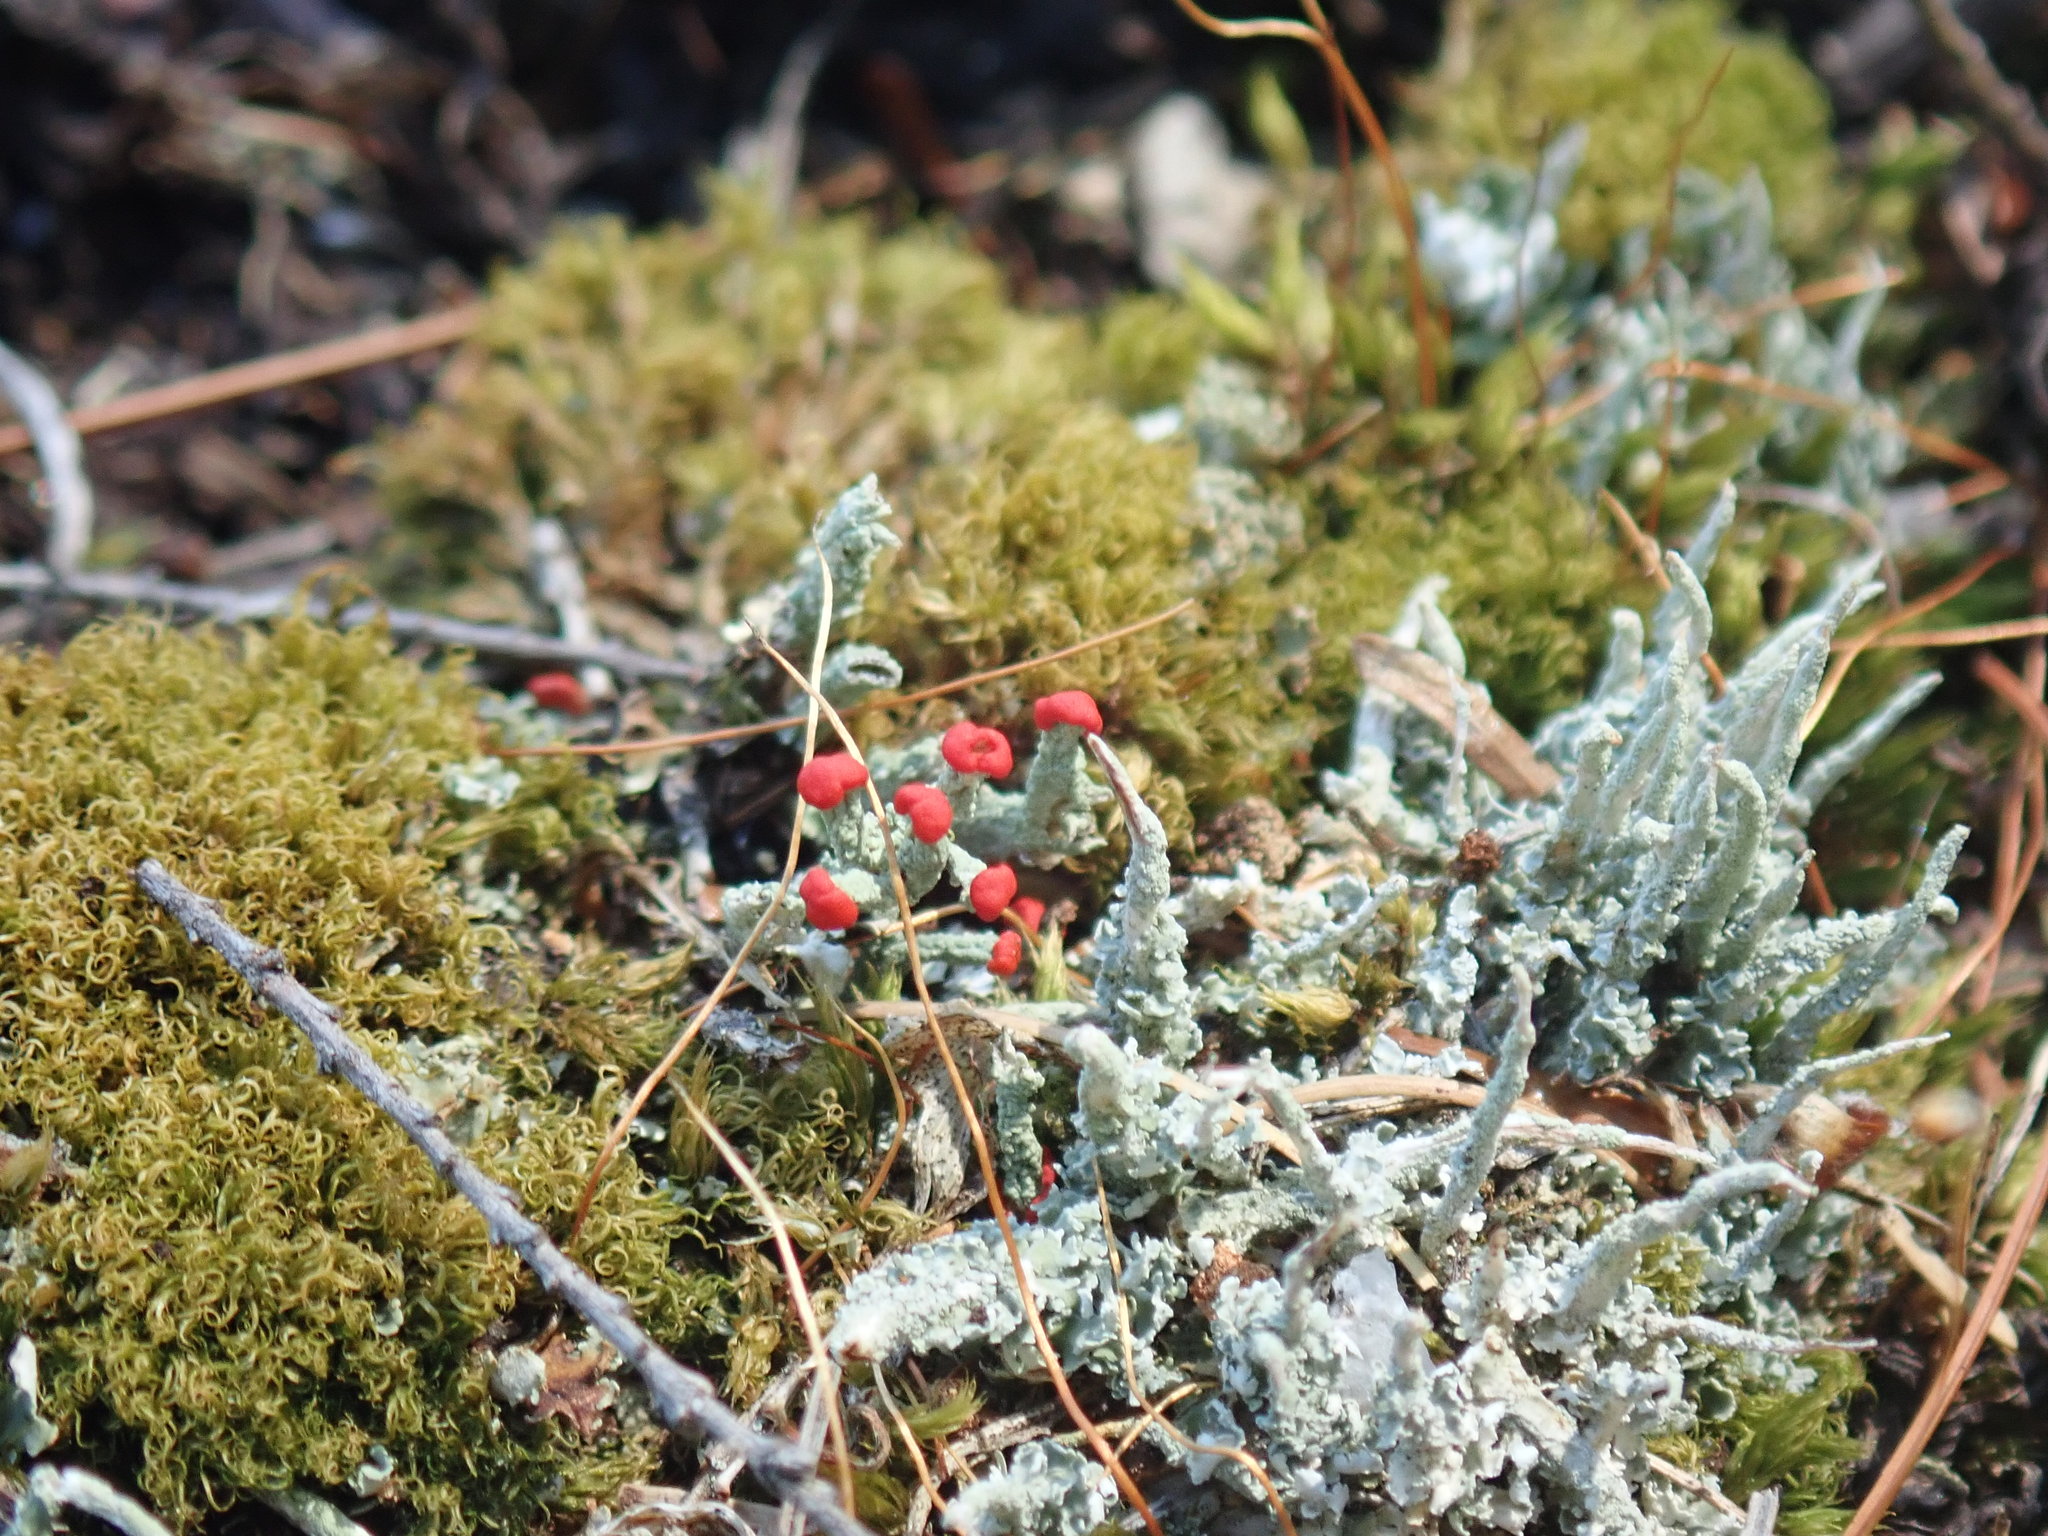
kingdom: Fungi
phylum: Ascomycota
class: Lecanoromycetes
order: Lecanorales
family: Cladoniaceae
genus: Cladonia
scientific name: Cladonia cristatella
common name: British soldier lichen
